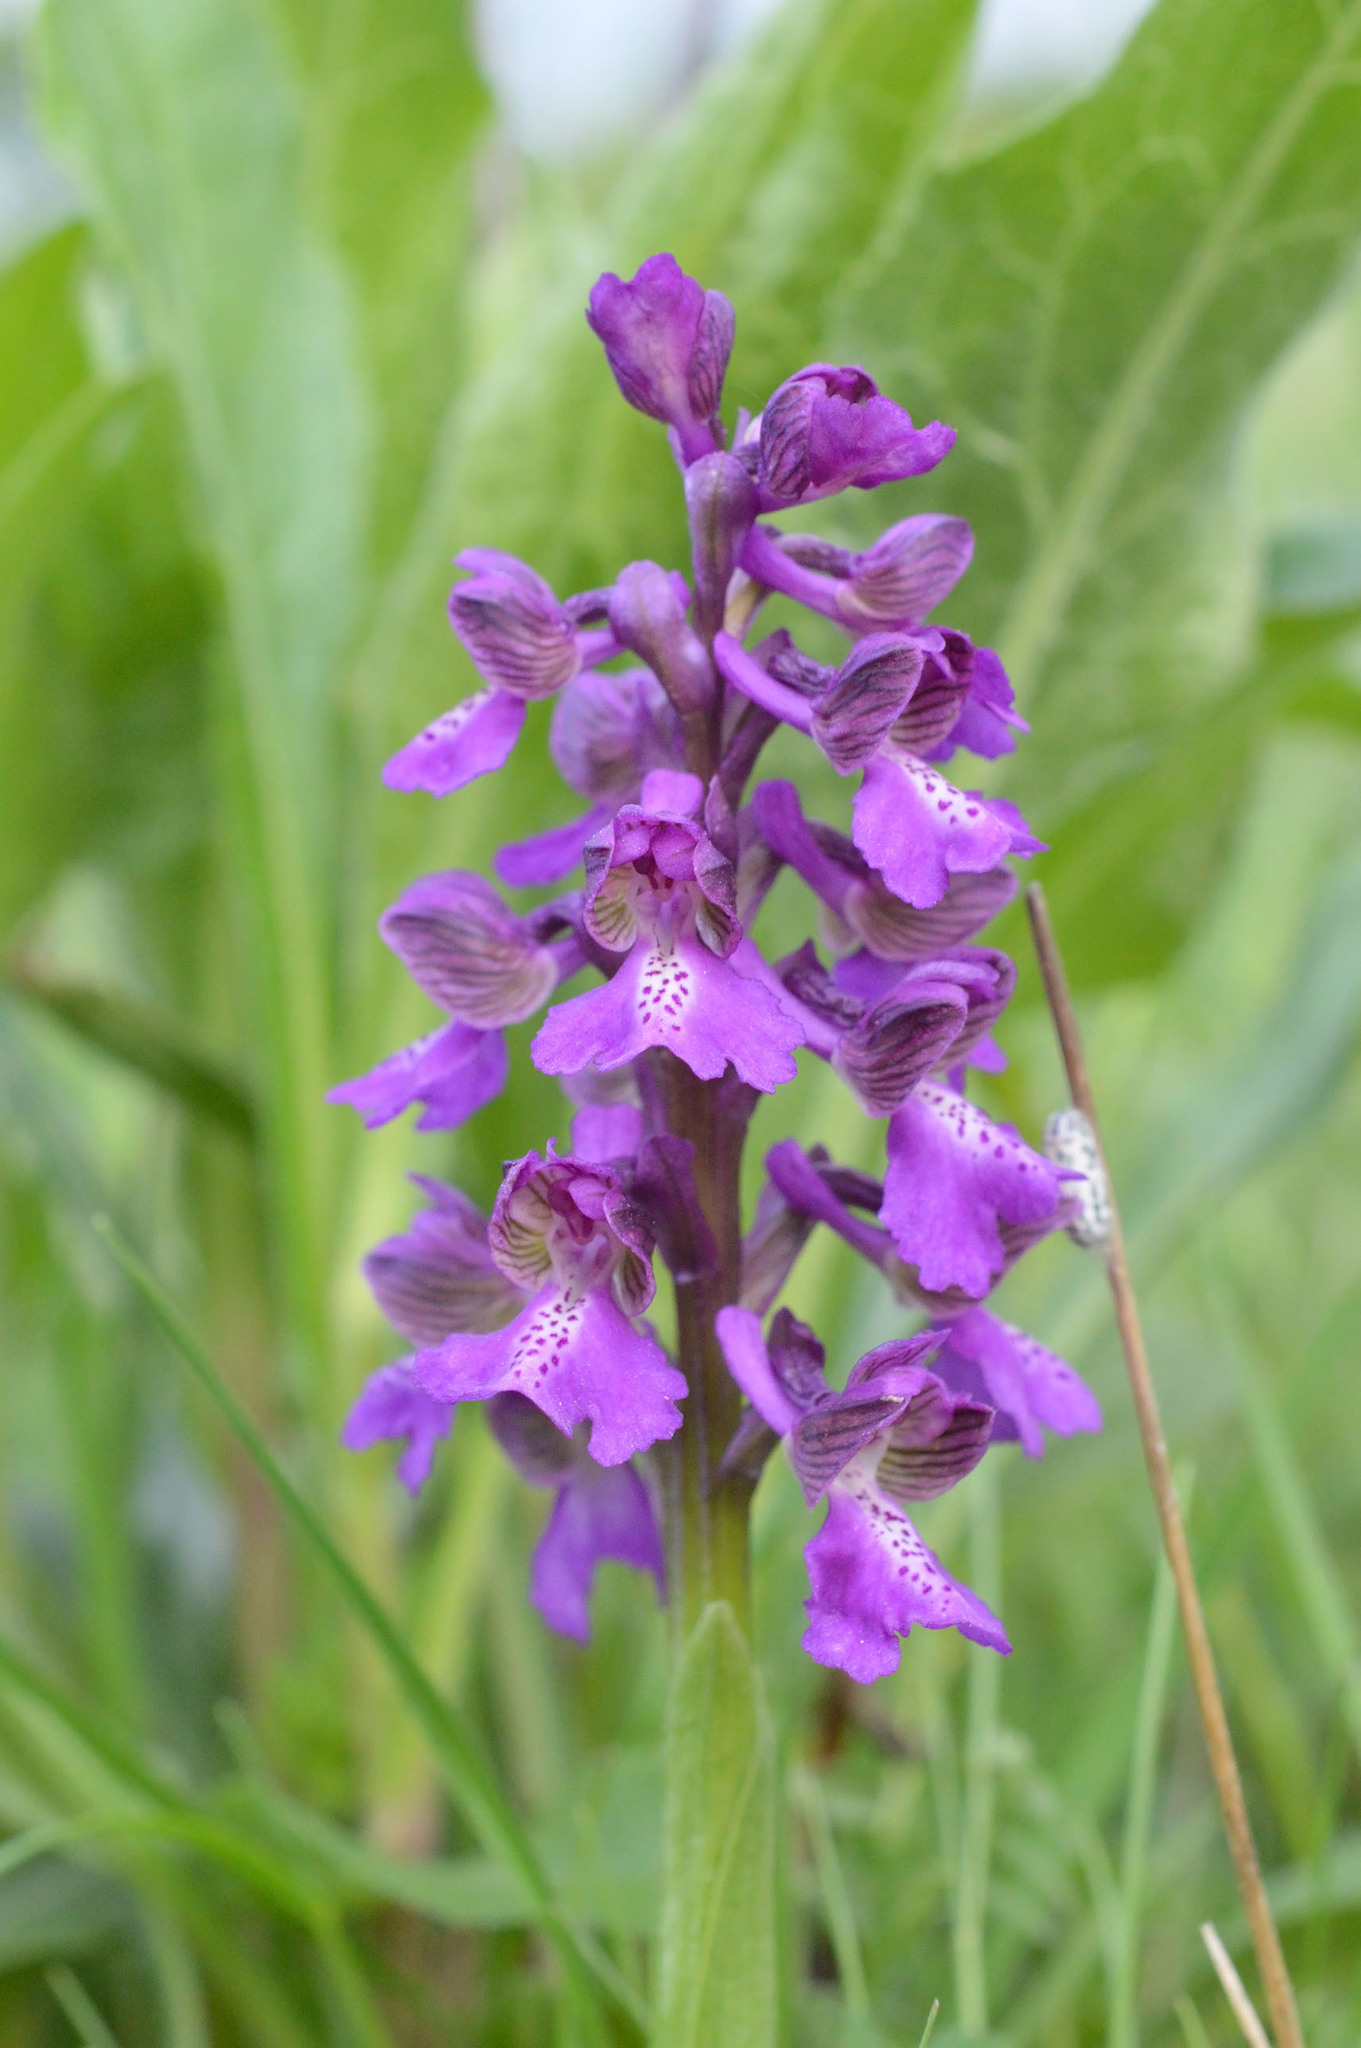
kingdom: Plantae
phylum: Tracheophyta
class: Liliopsida
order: Asparagales
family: Orchidaceae
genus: Anacamptis
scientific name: Anacamptis morio
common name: Green-winged orchid
